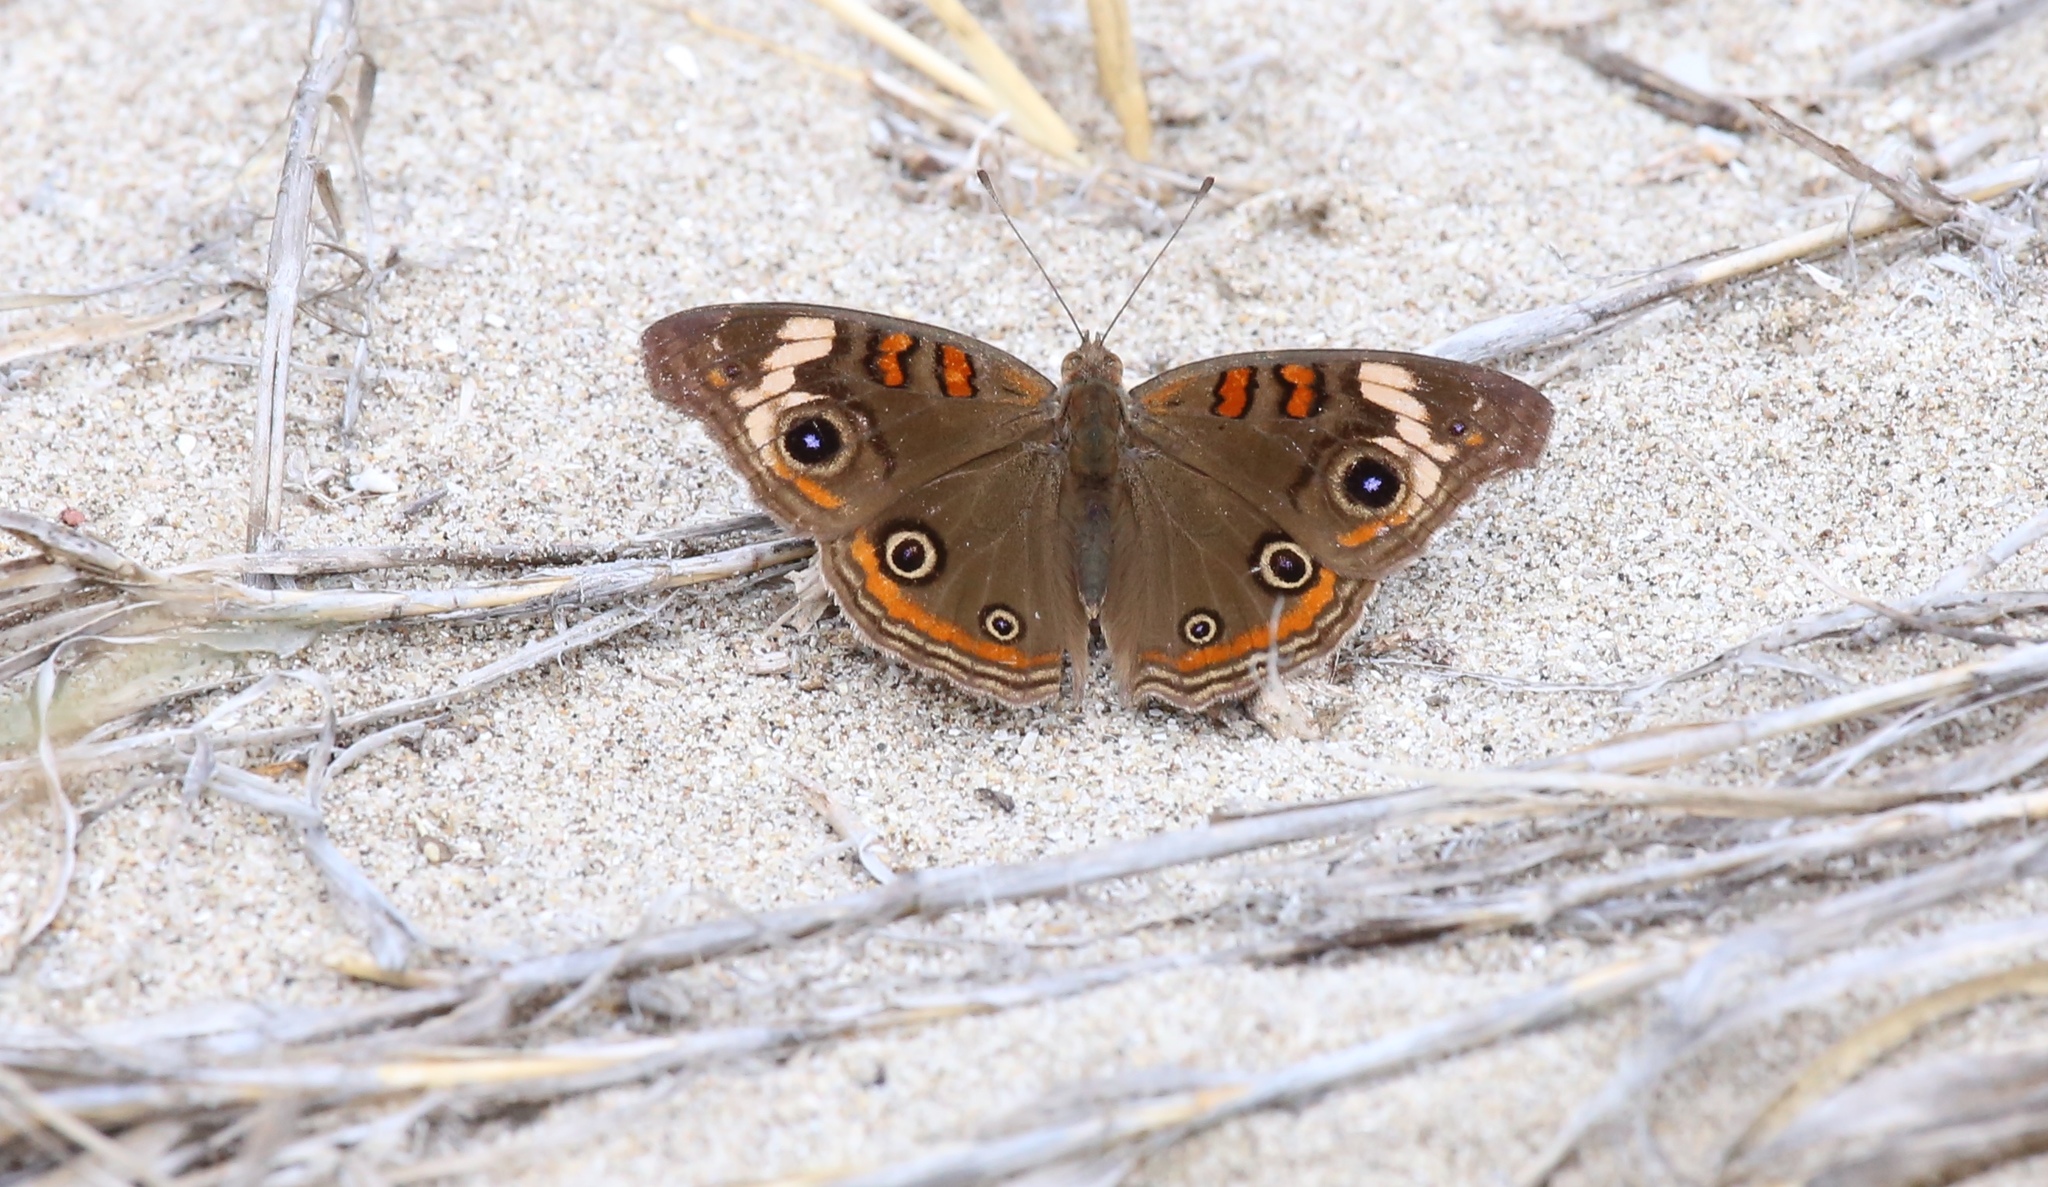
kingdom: Animalia
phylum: Arthropoda
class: Insecta
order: Lepidoptera
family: Nymphalidae
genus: Junonia
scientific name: Junonia pacoma
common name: Pacific mangrove buckeye
